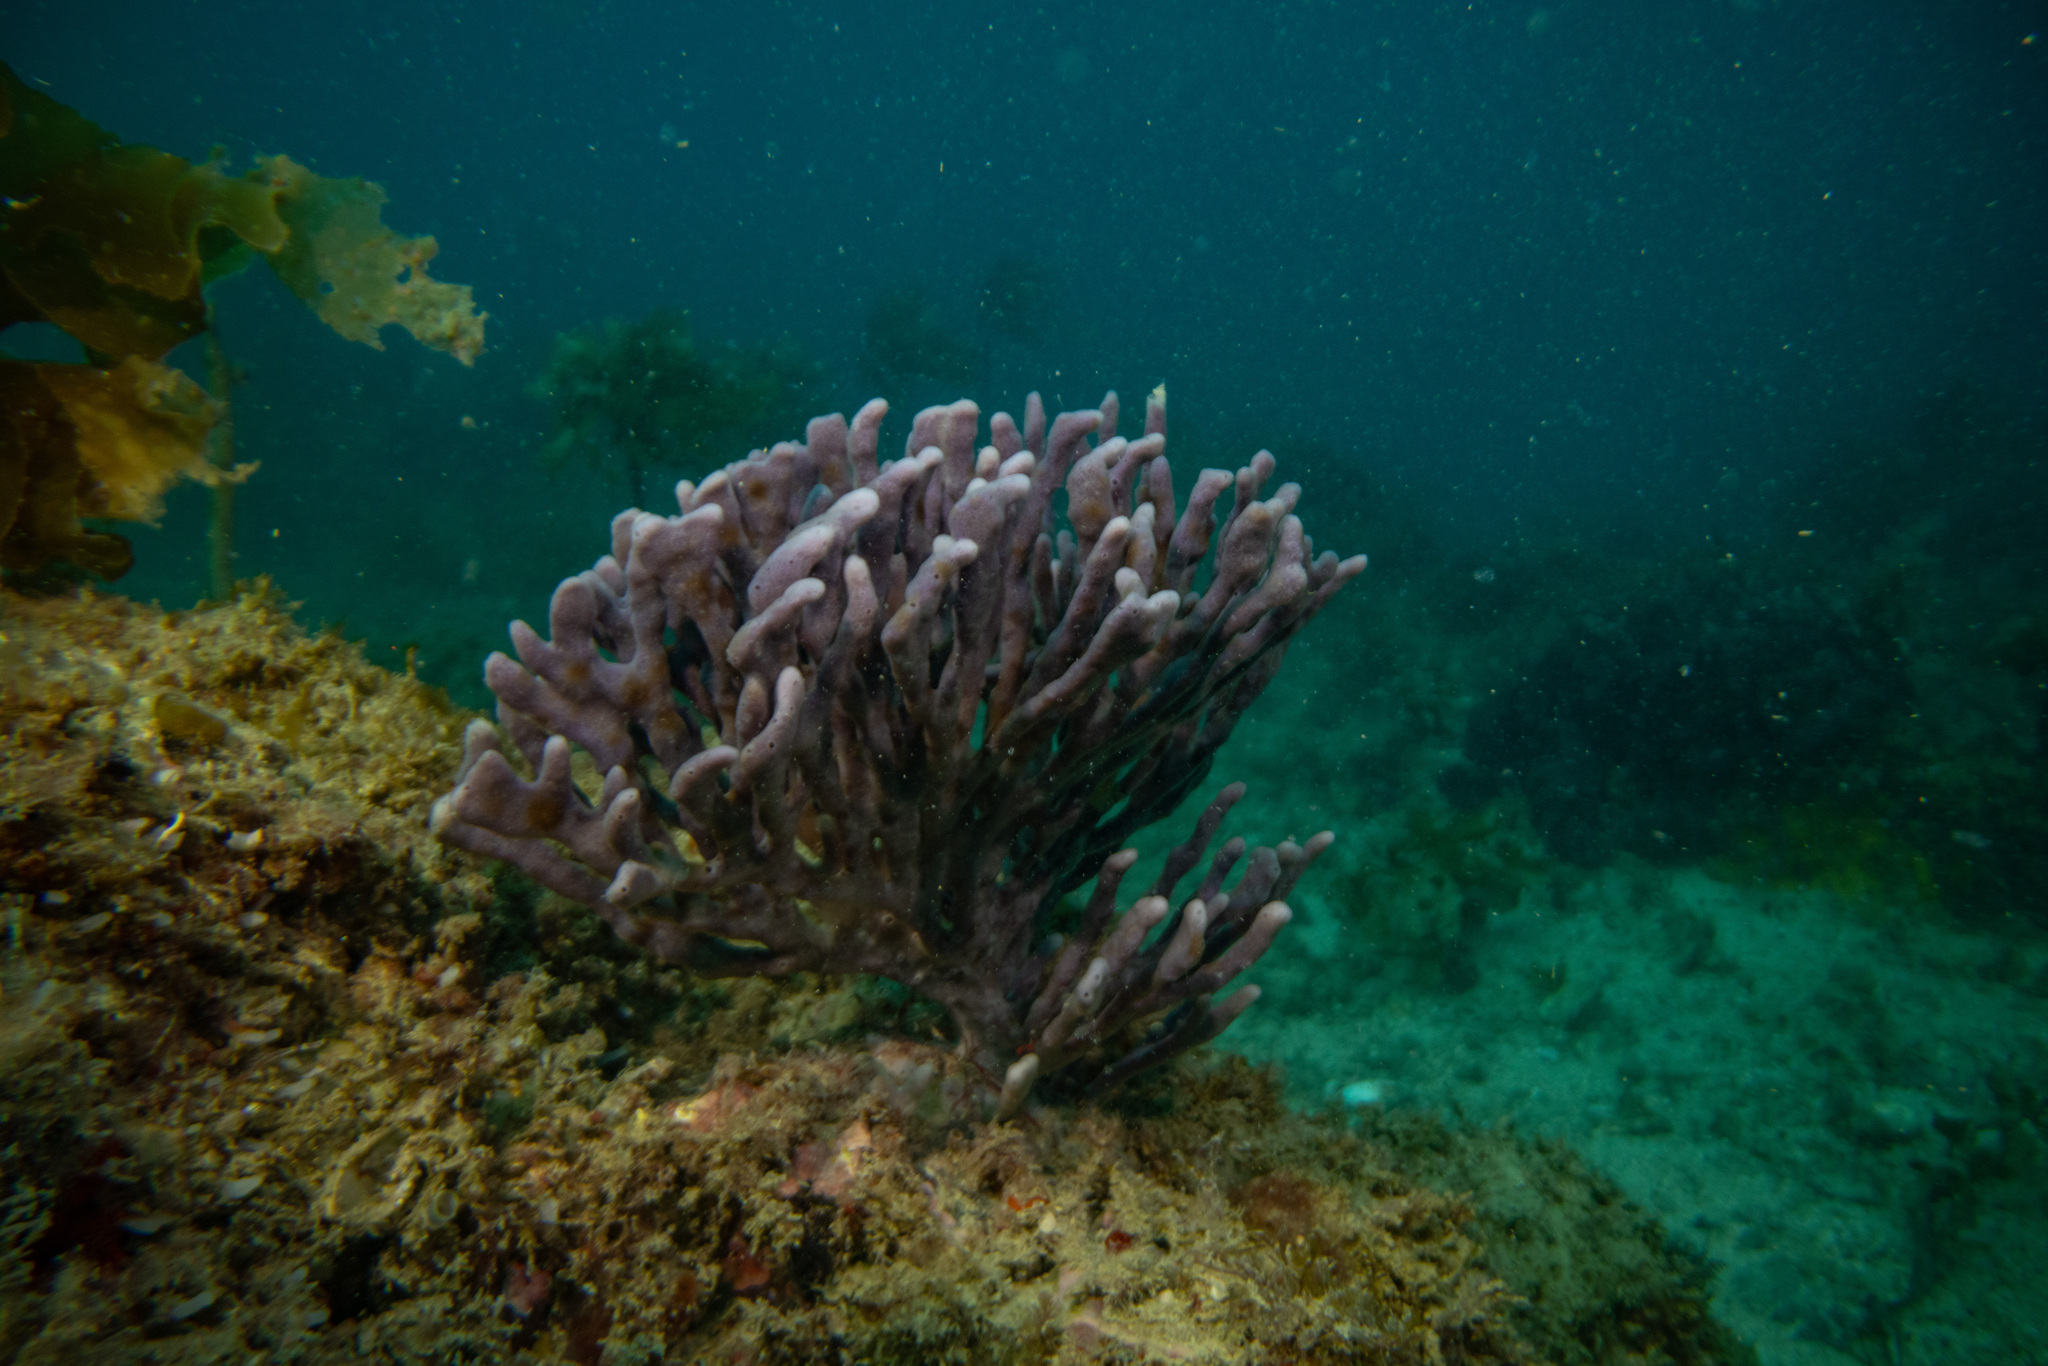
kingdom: Animalia
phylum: Porifera
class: Demospongiae
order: Haplosclerida
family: Callyspongiidae
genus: Dactylia
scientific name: Dactylia varia
